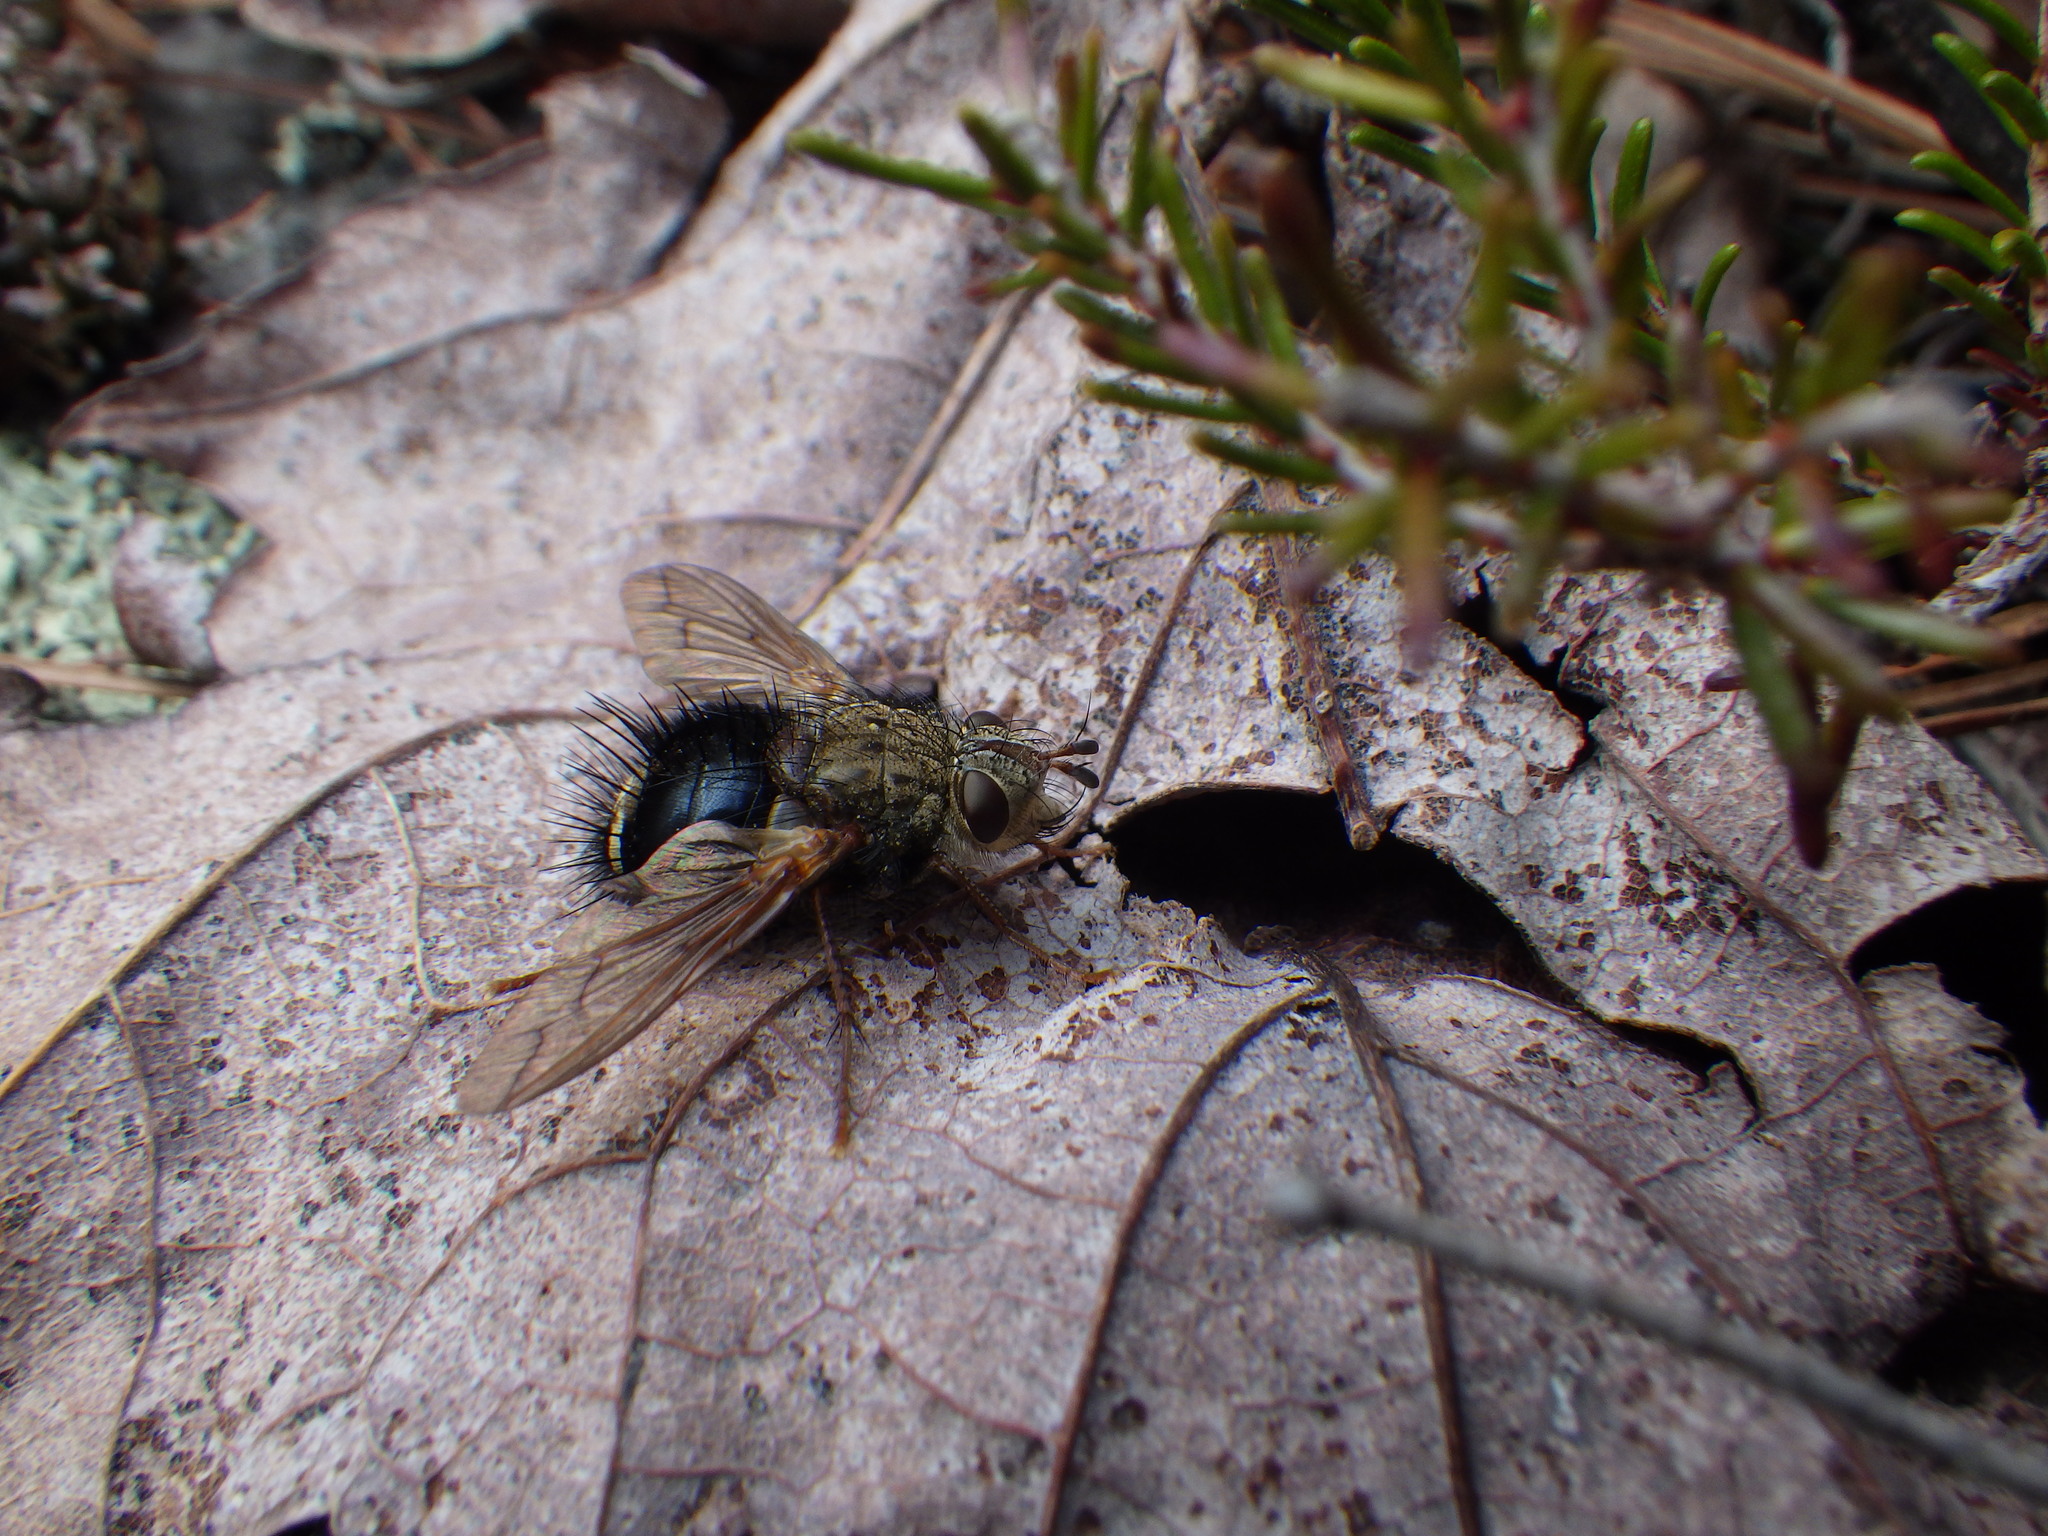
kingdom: Animalia
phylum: Arthropoda
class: Insecta
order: Diptera
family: Tachinidae
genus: Epalpus
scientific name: Epalpus signifer
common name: Early tachinid fly
